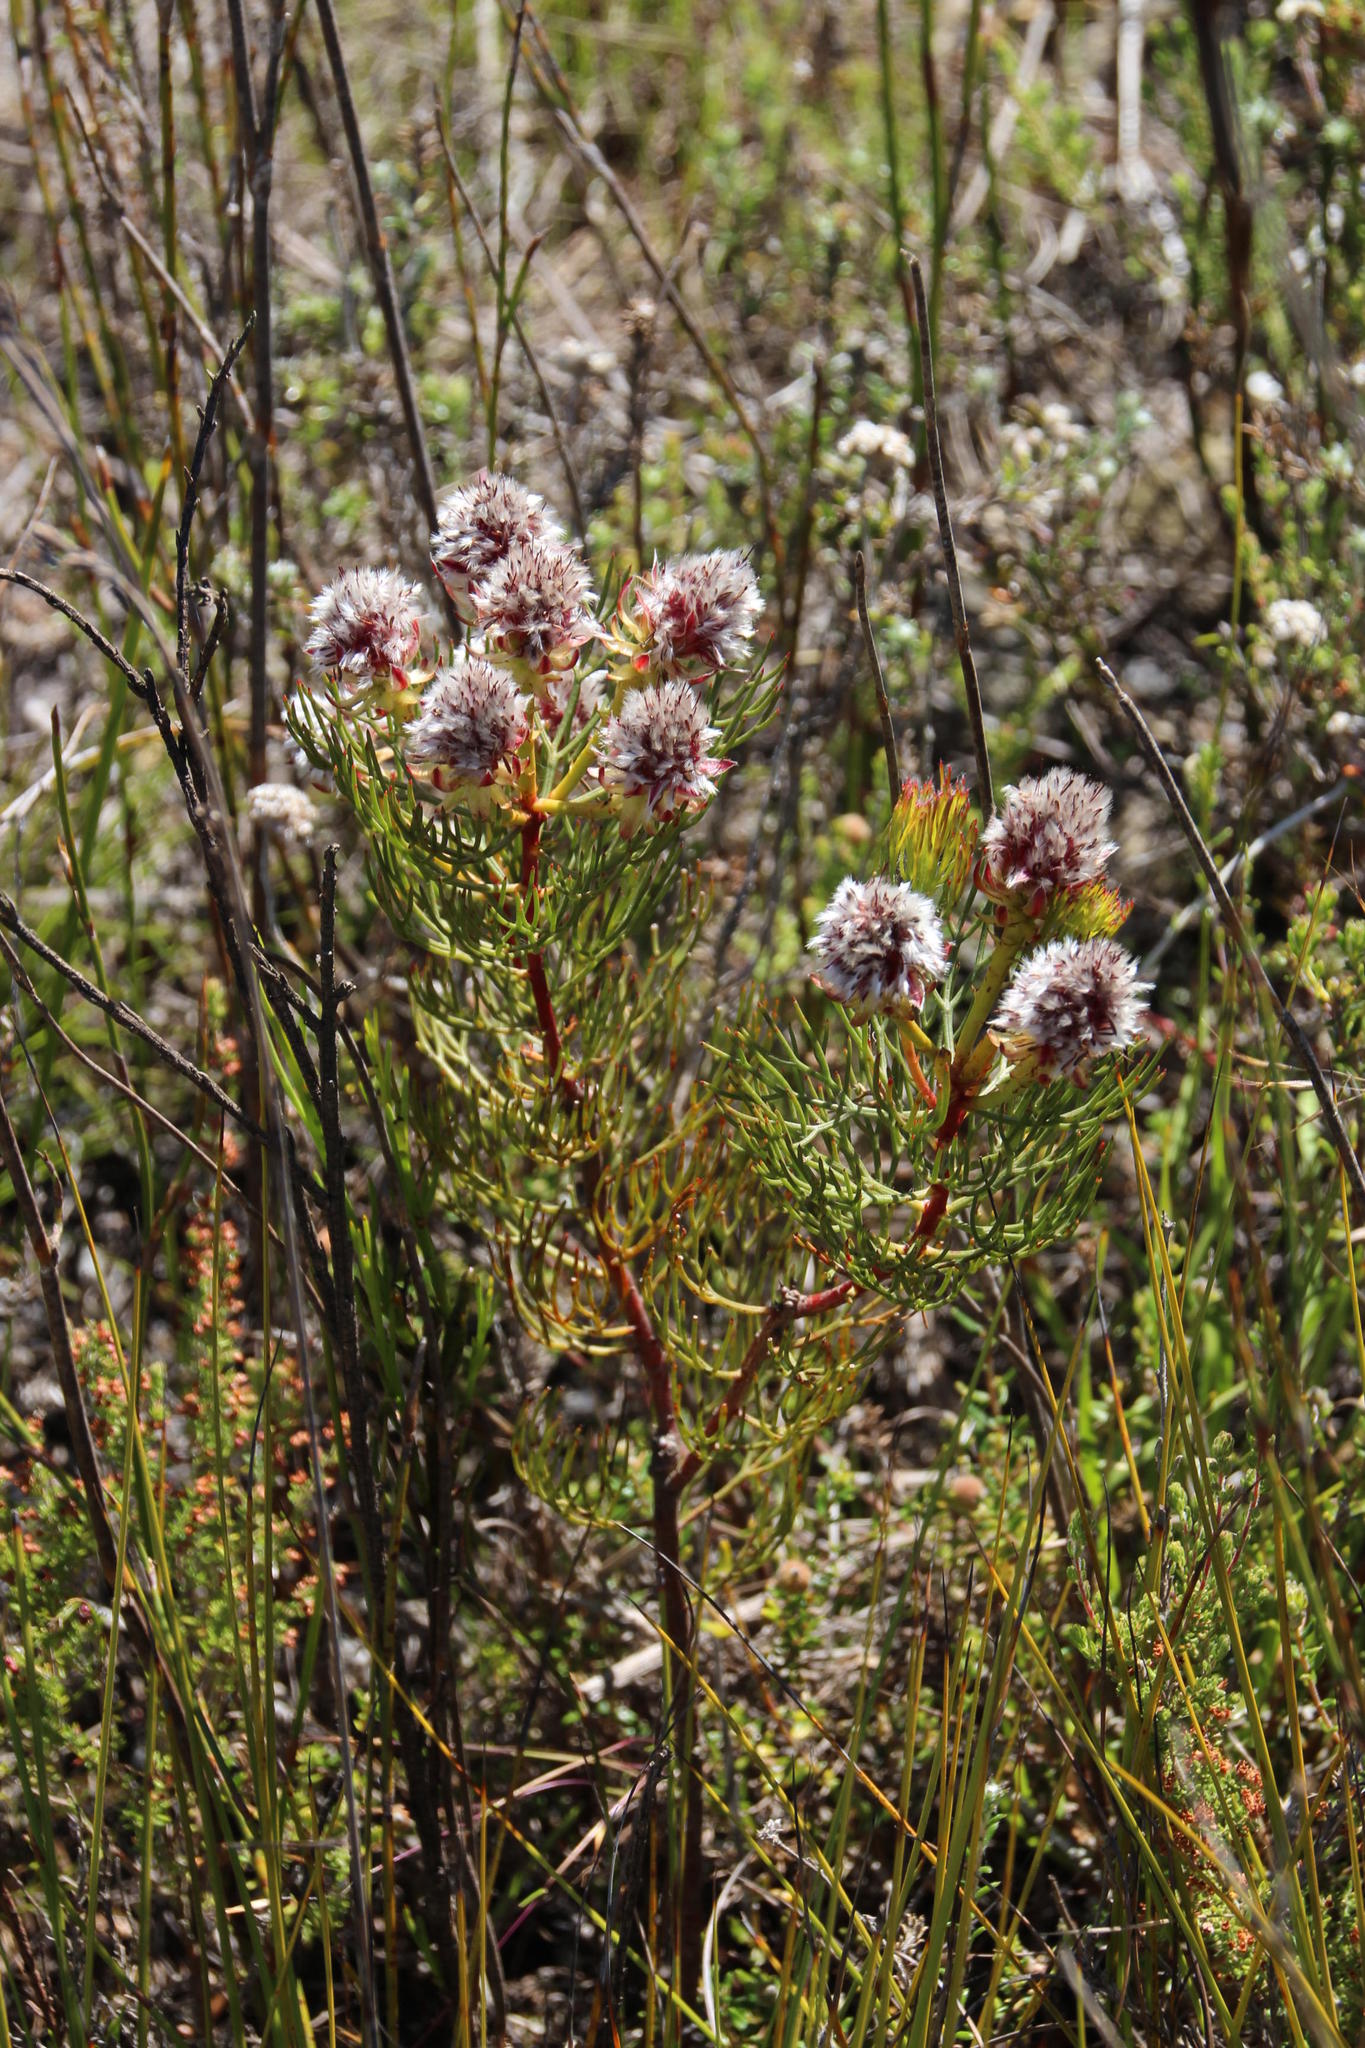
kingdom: Plantae
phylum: Tracheophyta
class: Magnoliopsida
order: Proteales
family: Proteaceae
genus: Serruria
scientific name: Serruria phylicoides
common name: Bearded spiderhead
